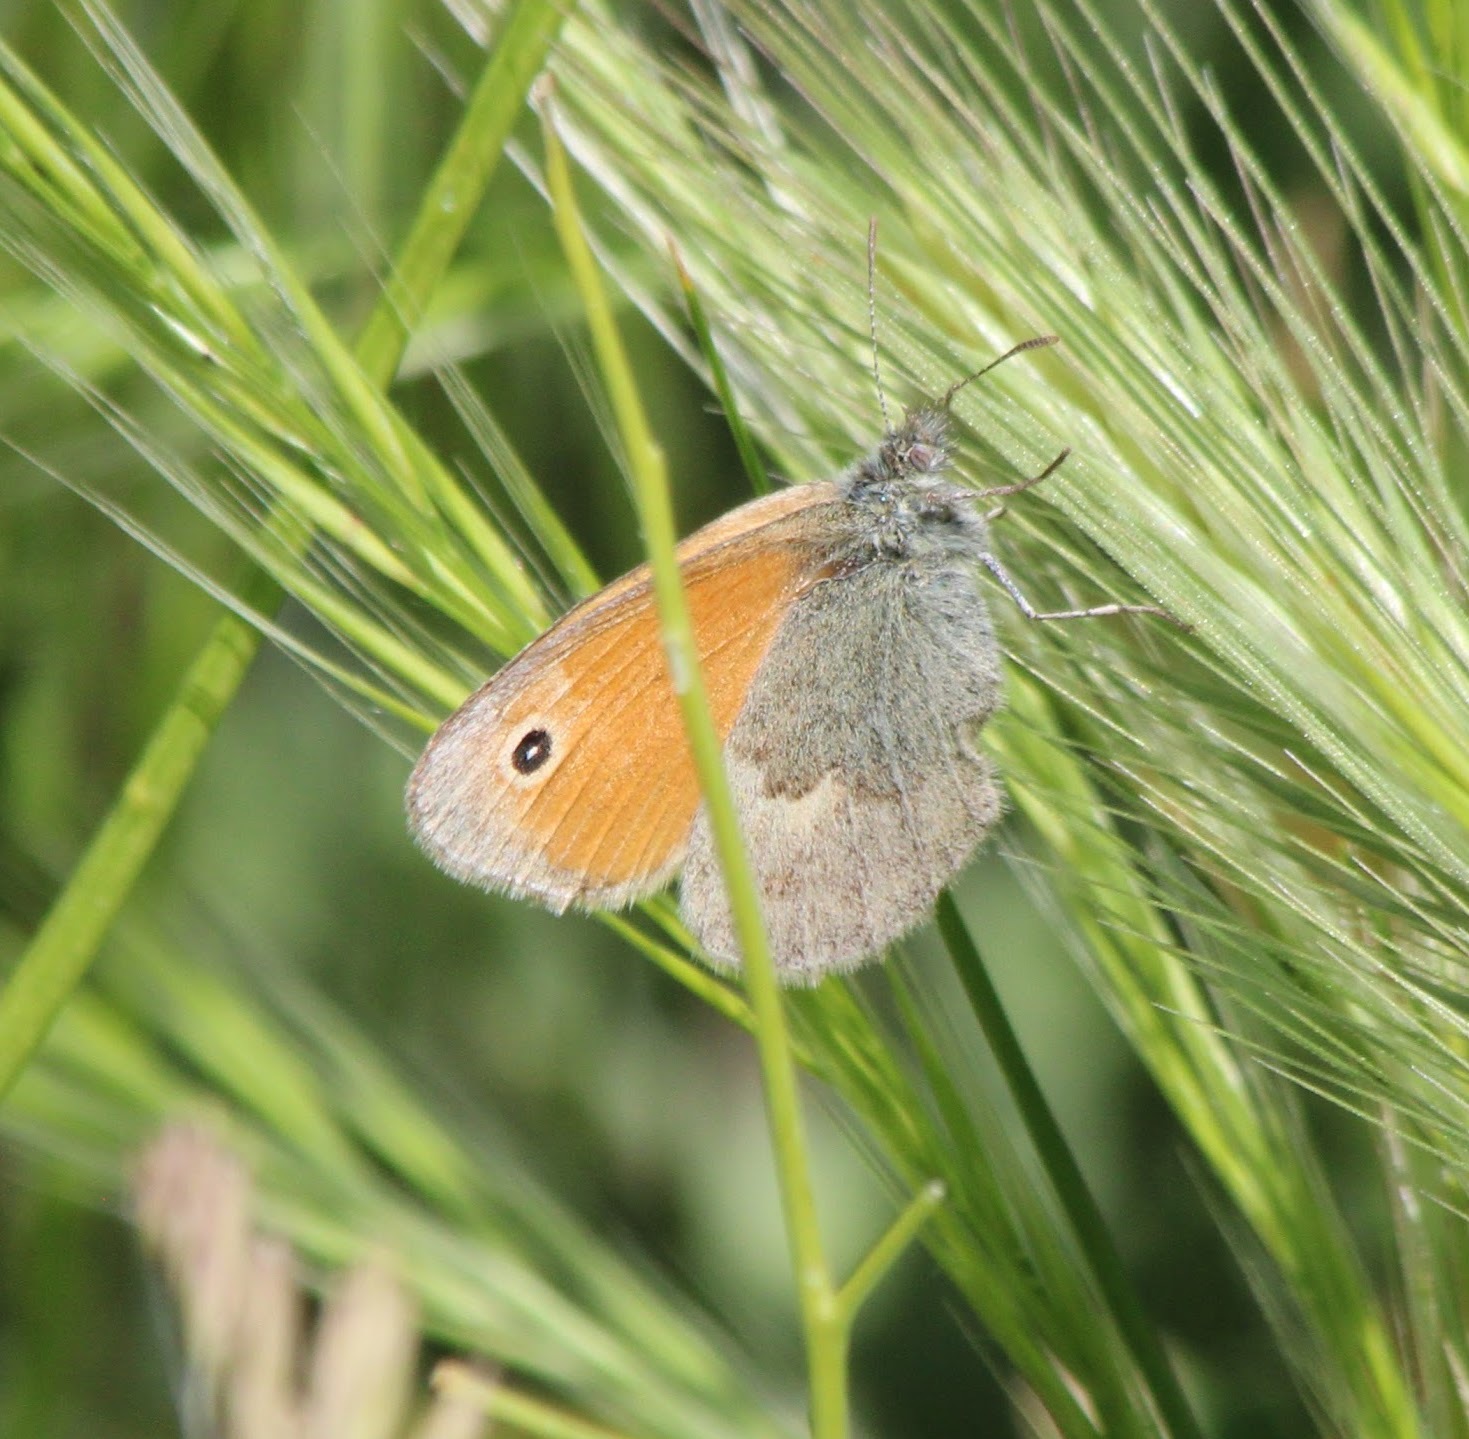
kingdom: Animalia
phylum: Arthropoda
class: Insecta
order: Lepidoptera
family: Nymphalidae
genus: Coenonympha
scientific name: Coenonympha pamphilus
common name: Small heath
